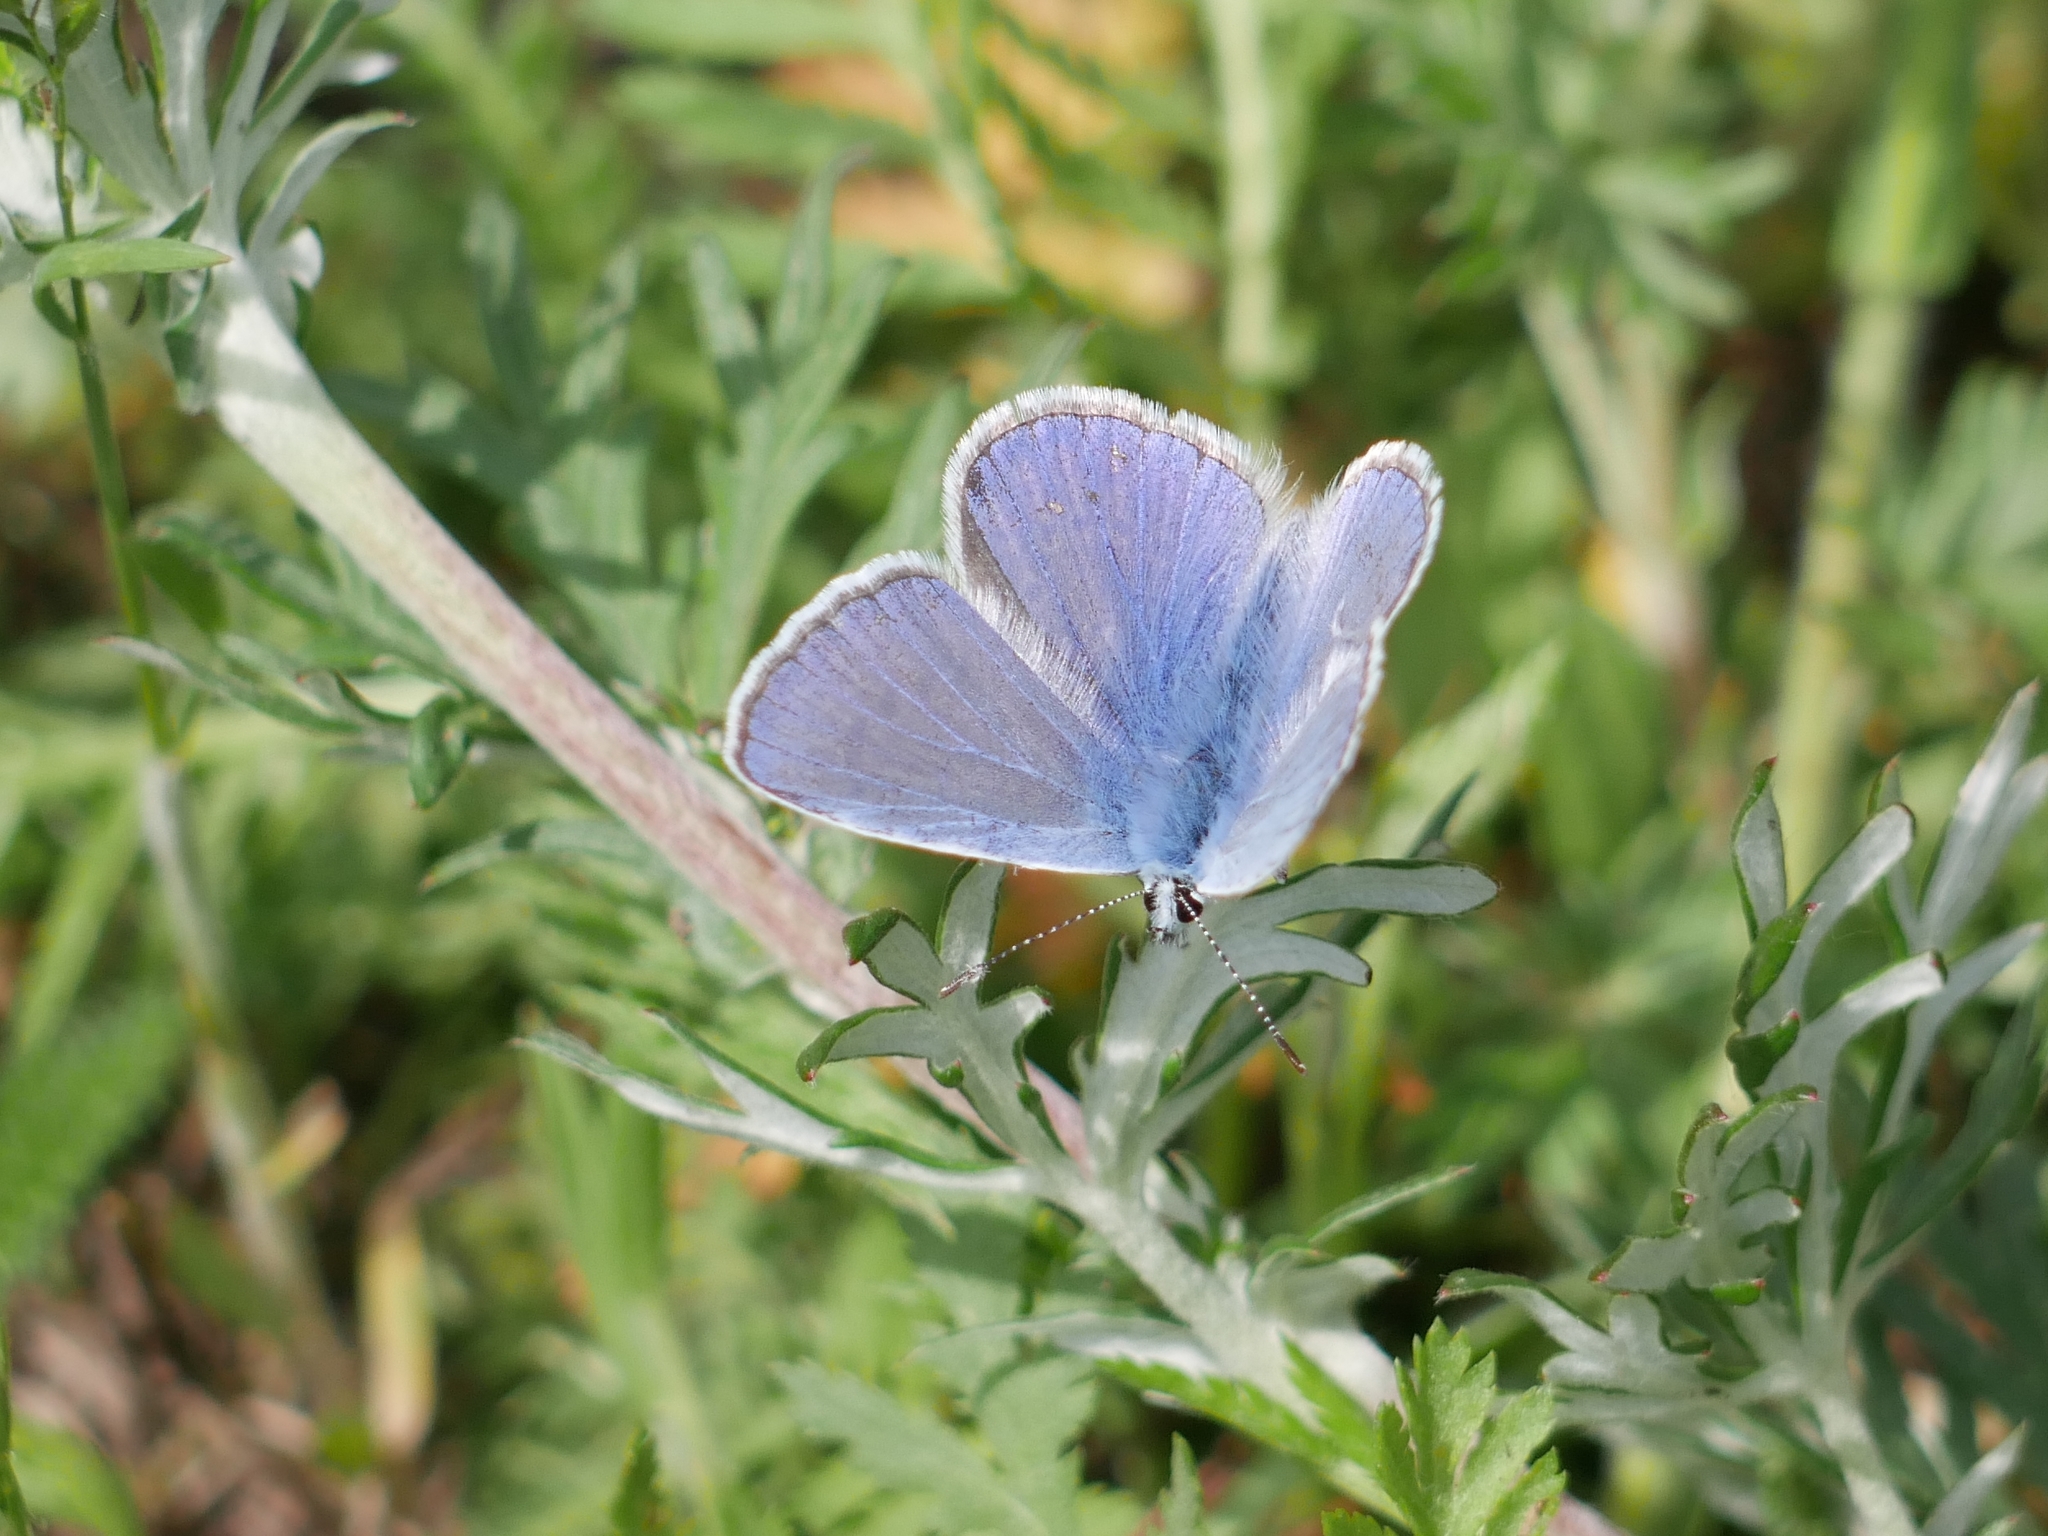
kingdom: Animalia
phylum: Arthropoda
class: Insecta
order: Lepidoptera
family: Lycaenidae
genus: Polyommatus
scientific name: Polyommatus icarus
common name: Common blue
